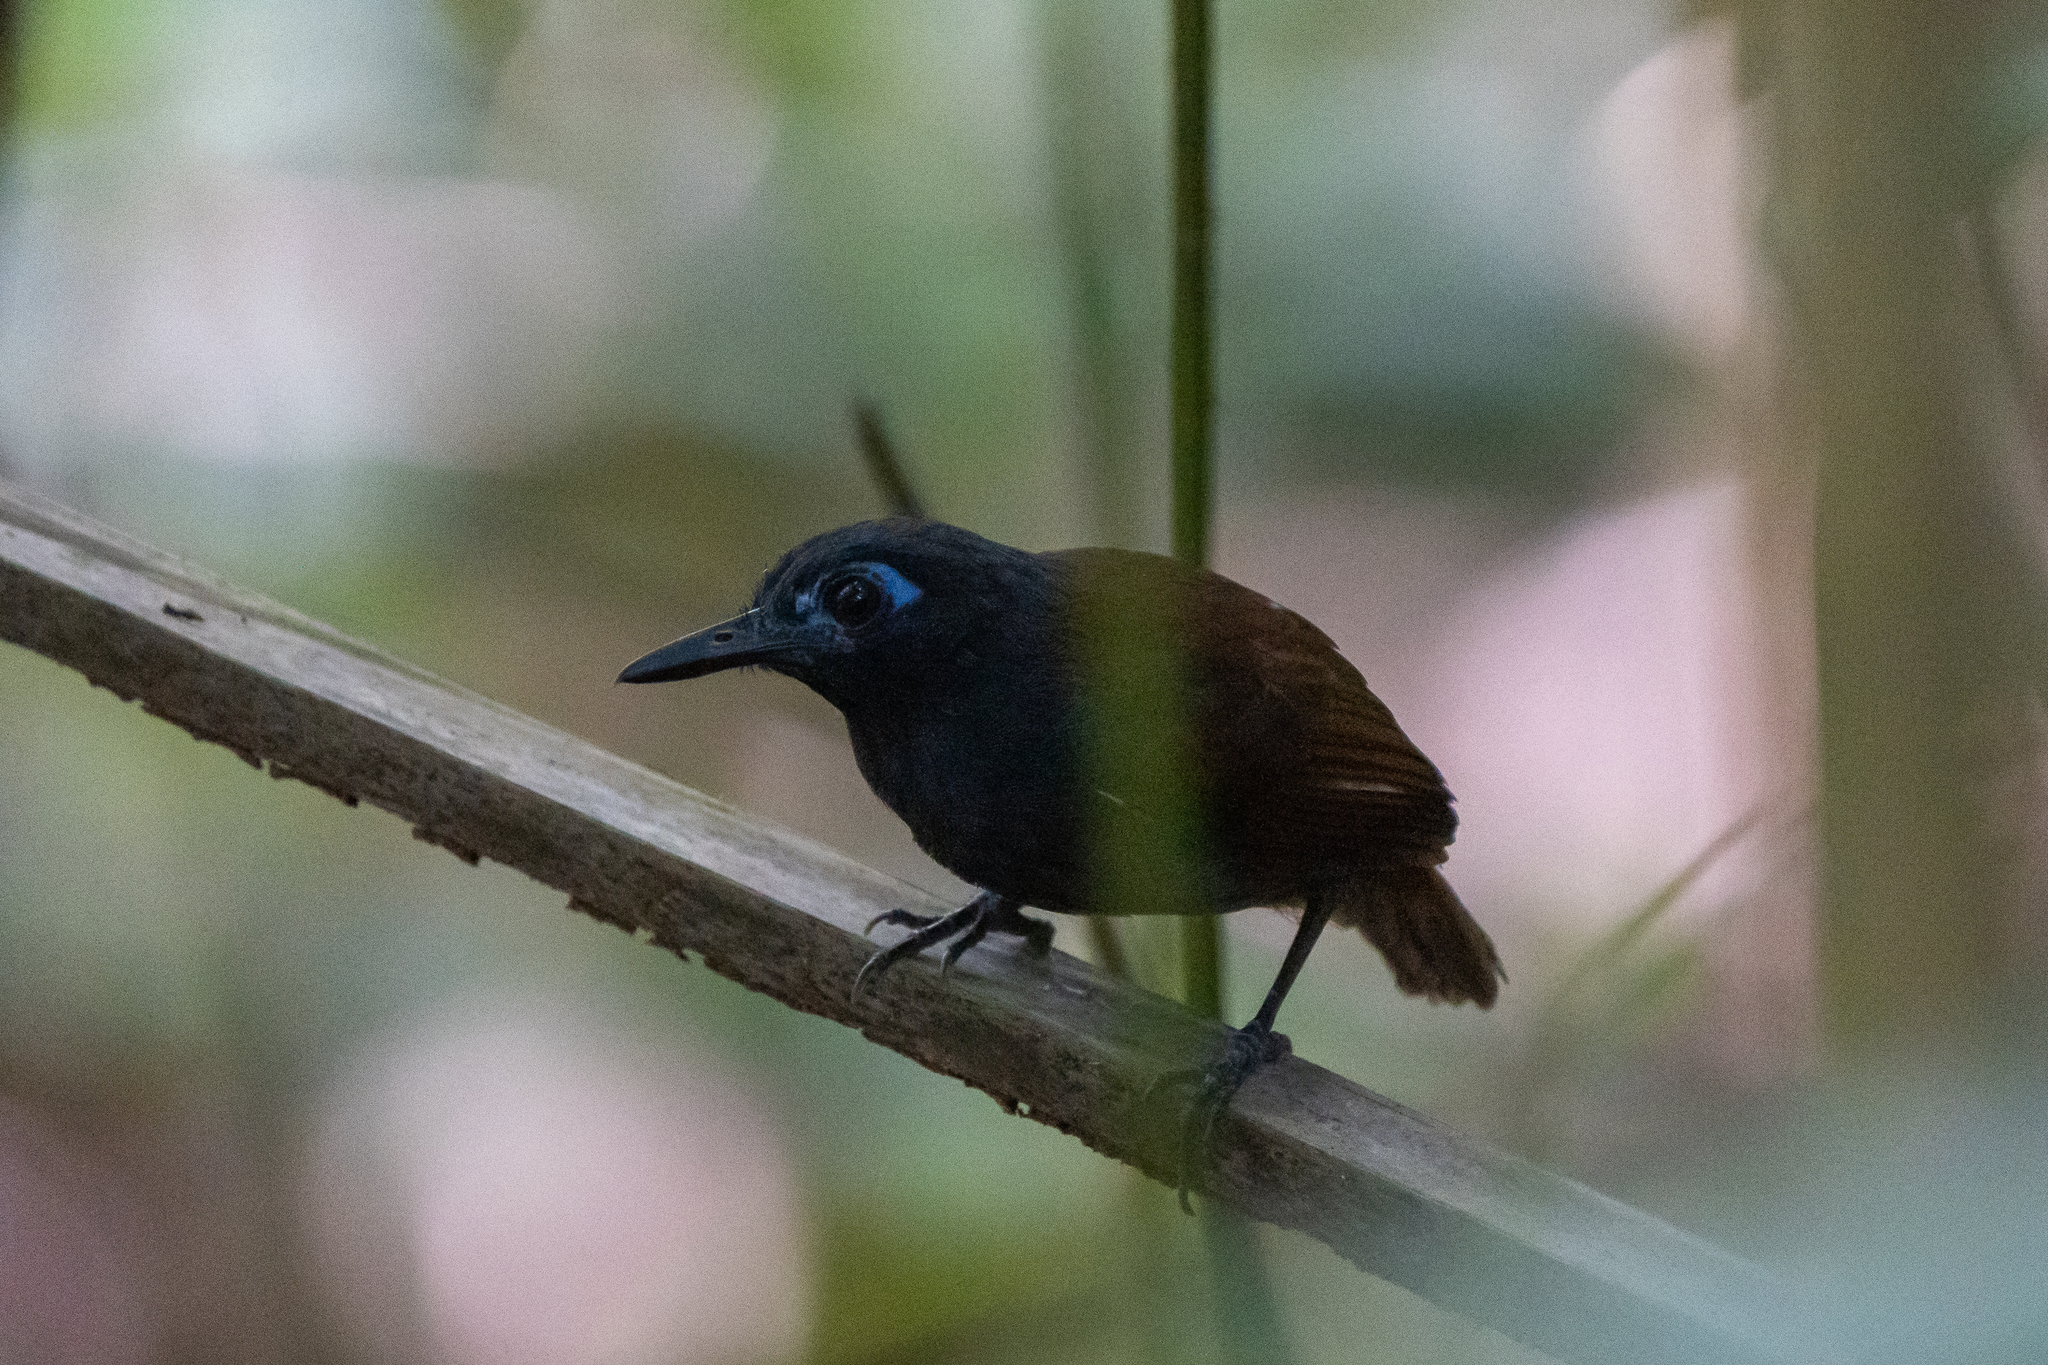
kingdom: Animalia
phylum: Chordata
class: Aves
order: Passeriformes
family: Thamnophilidae
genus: Myrmeciza
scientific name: Myrmeciza exsul
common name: Chestnut-backed antbird
